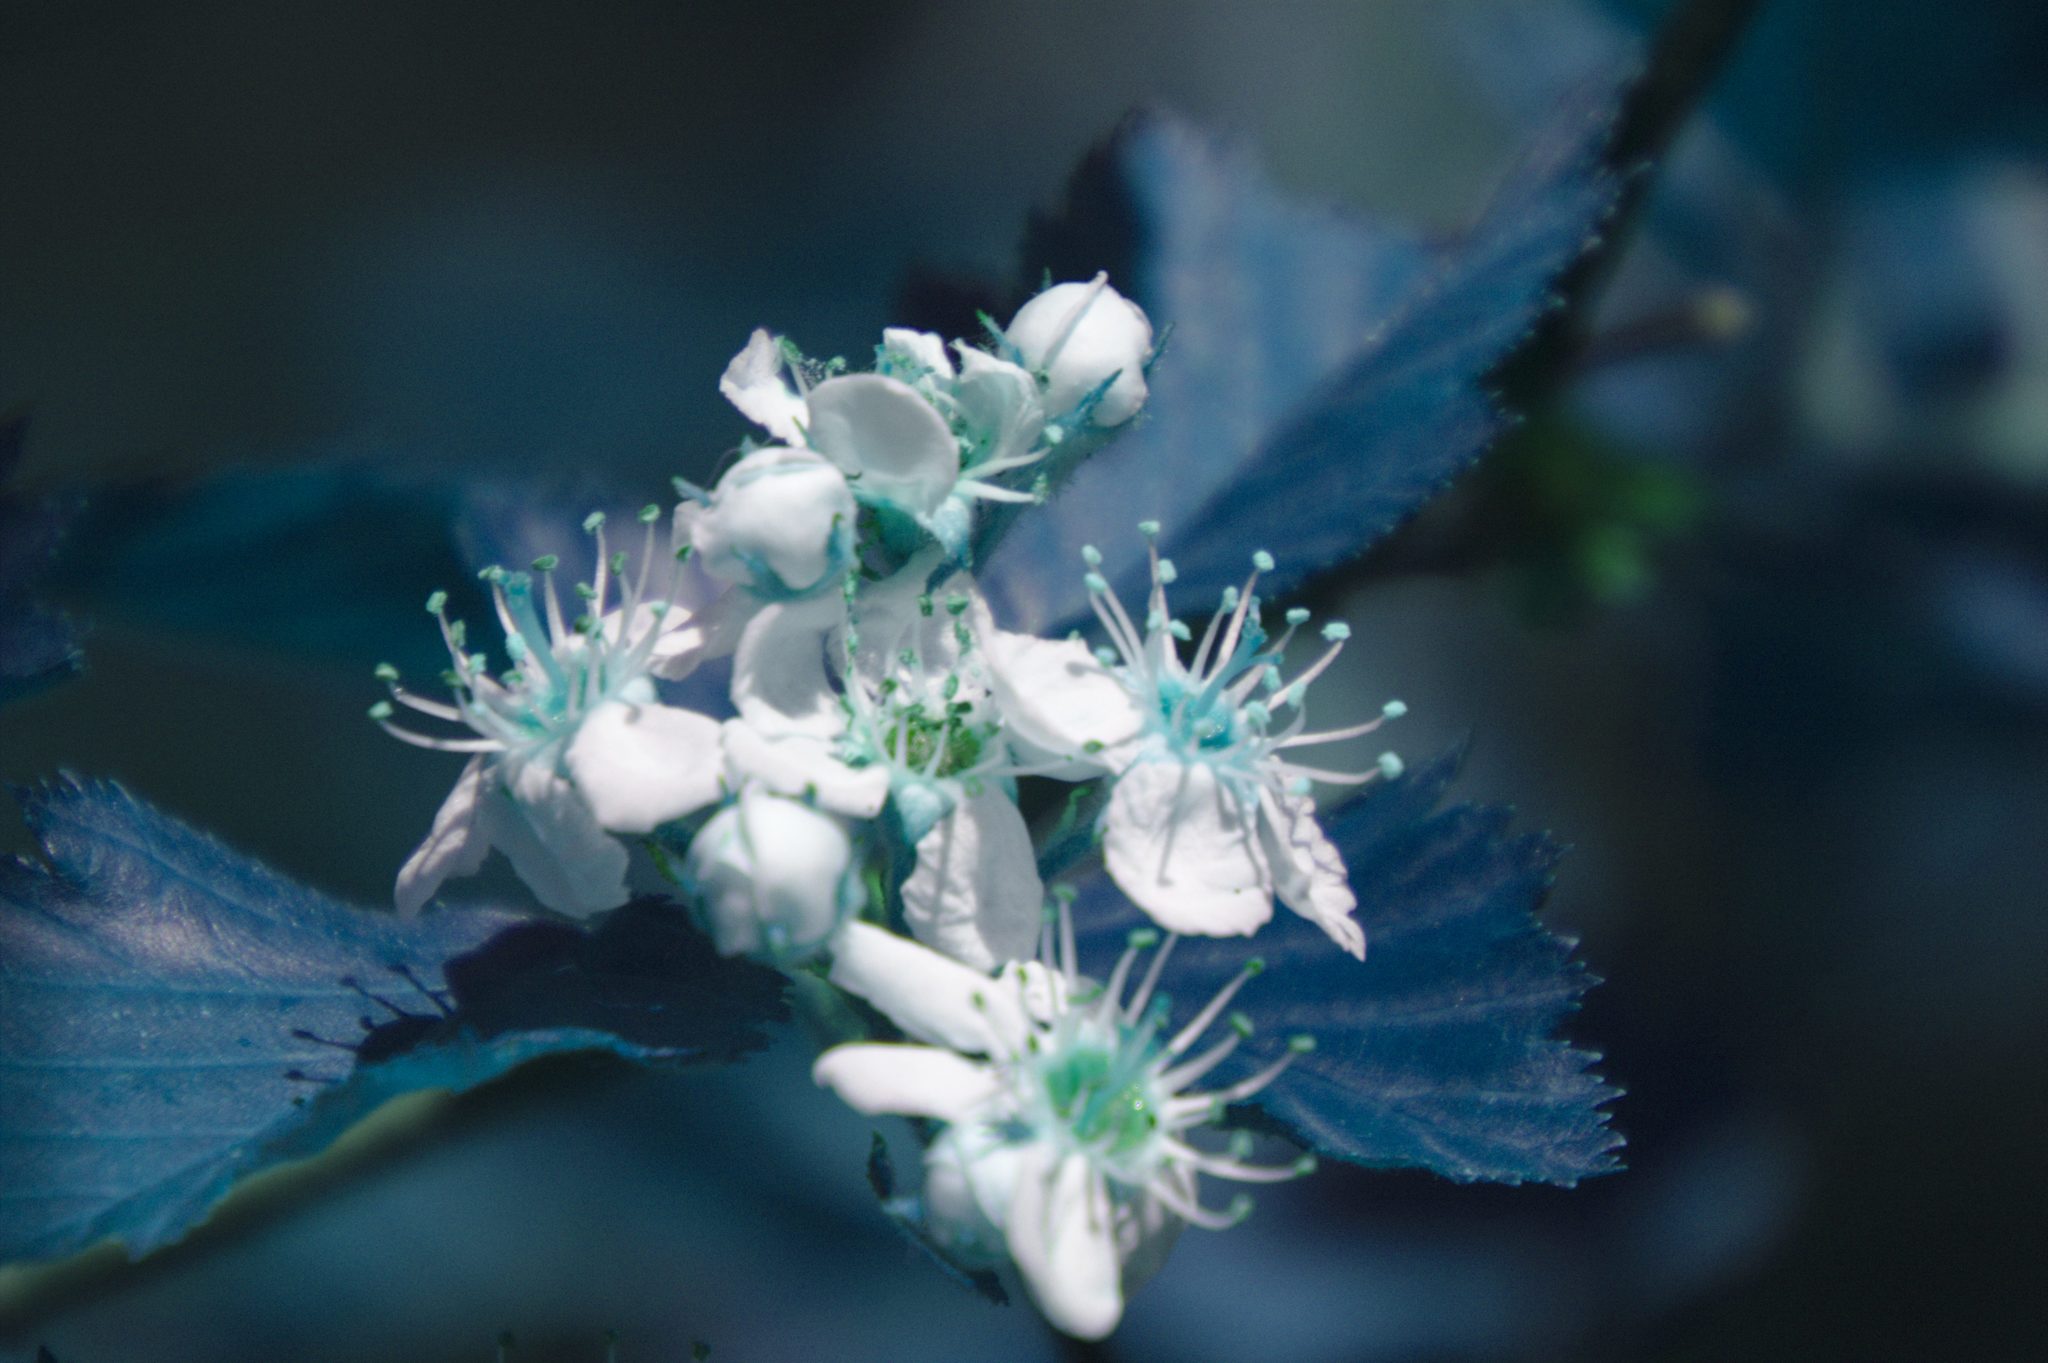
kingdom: Plantae
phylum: Tracheophyta
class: Magnoliopsida
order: Rosales
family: Rosaceae
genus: Crataegus
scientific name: Crataegus submollis
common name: Hairy cockspurthorn
